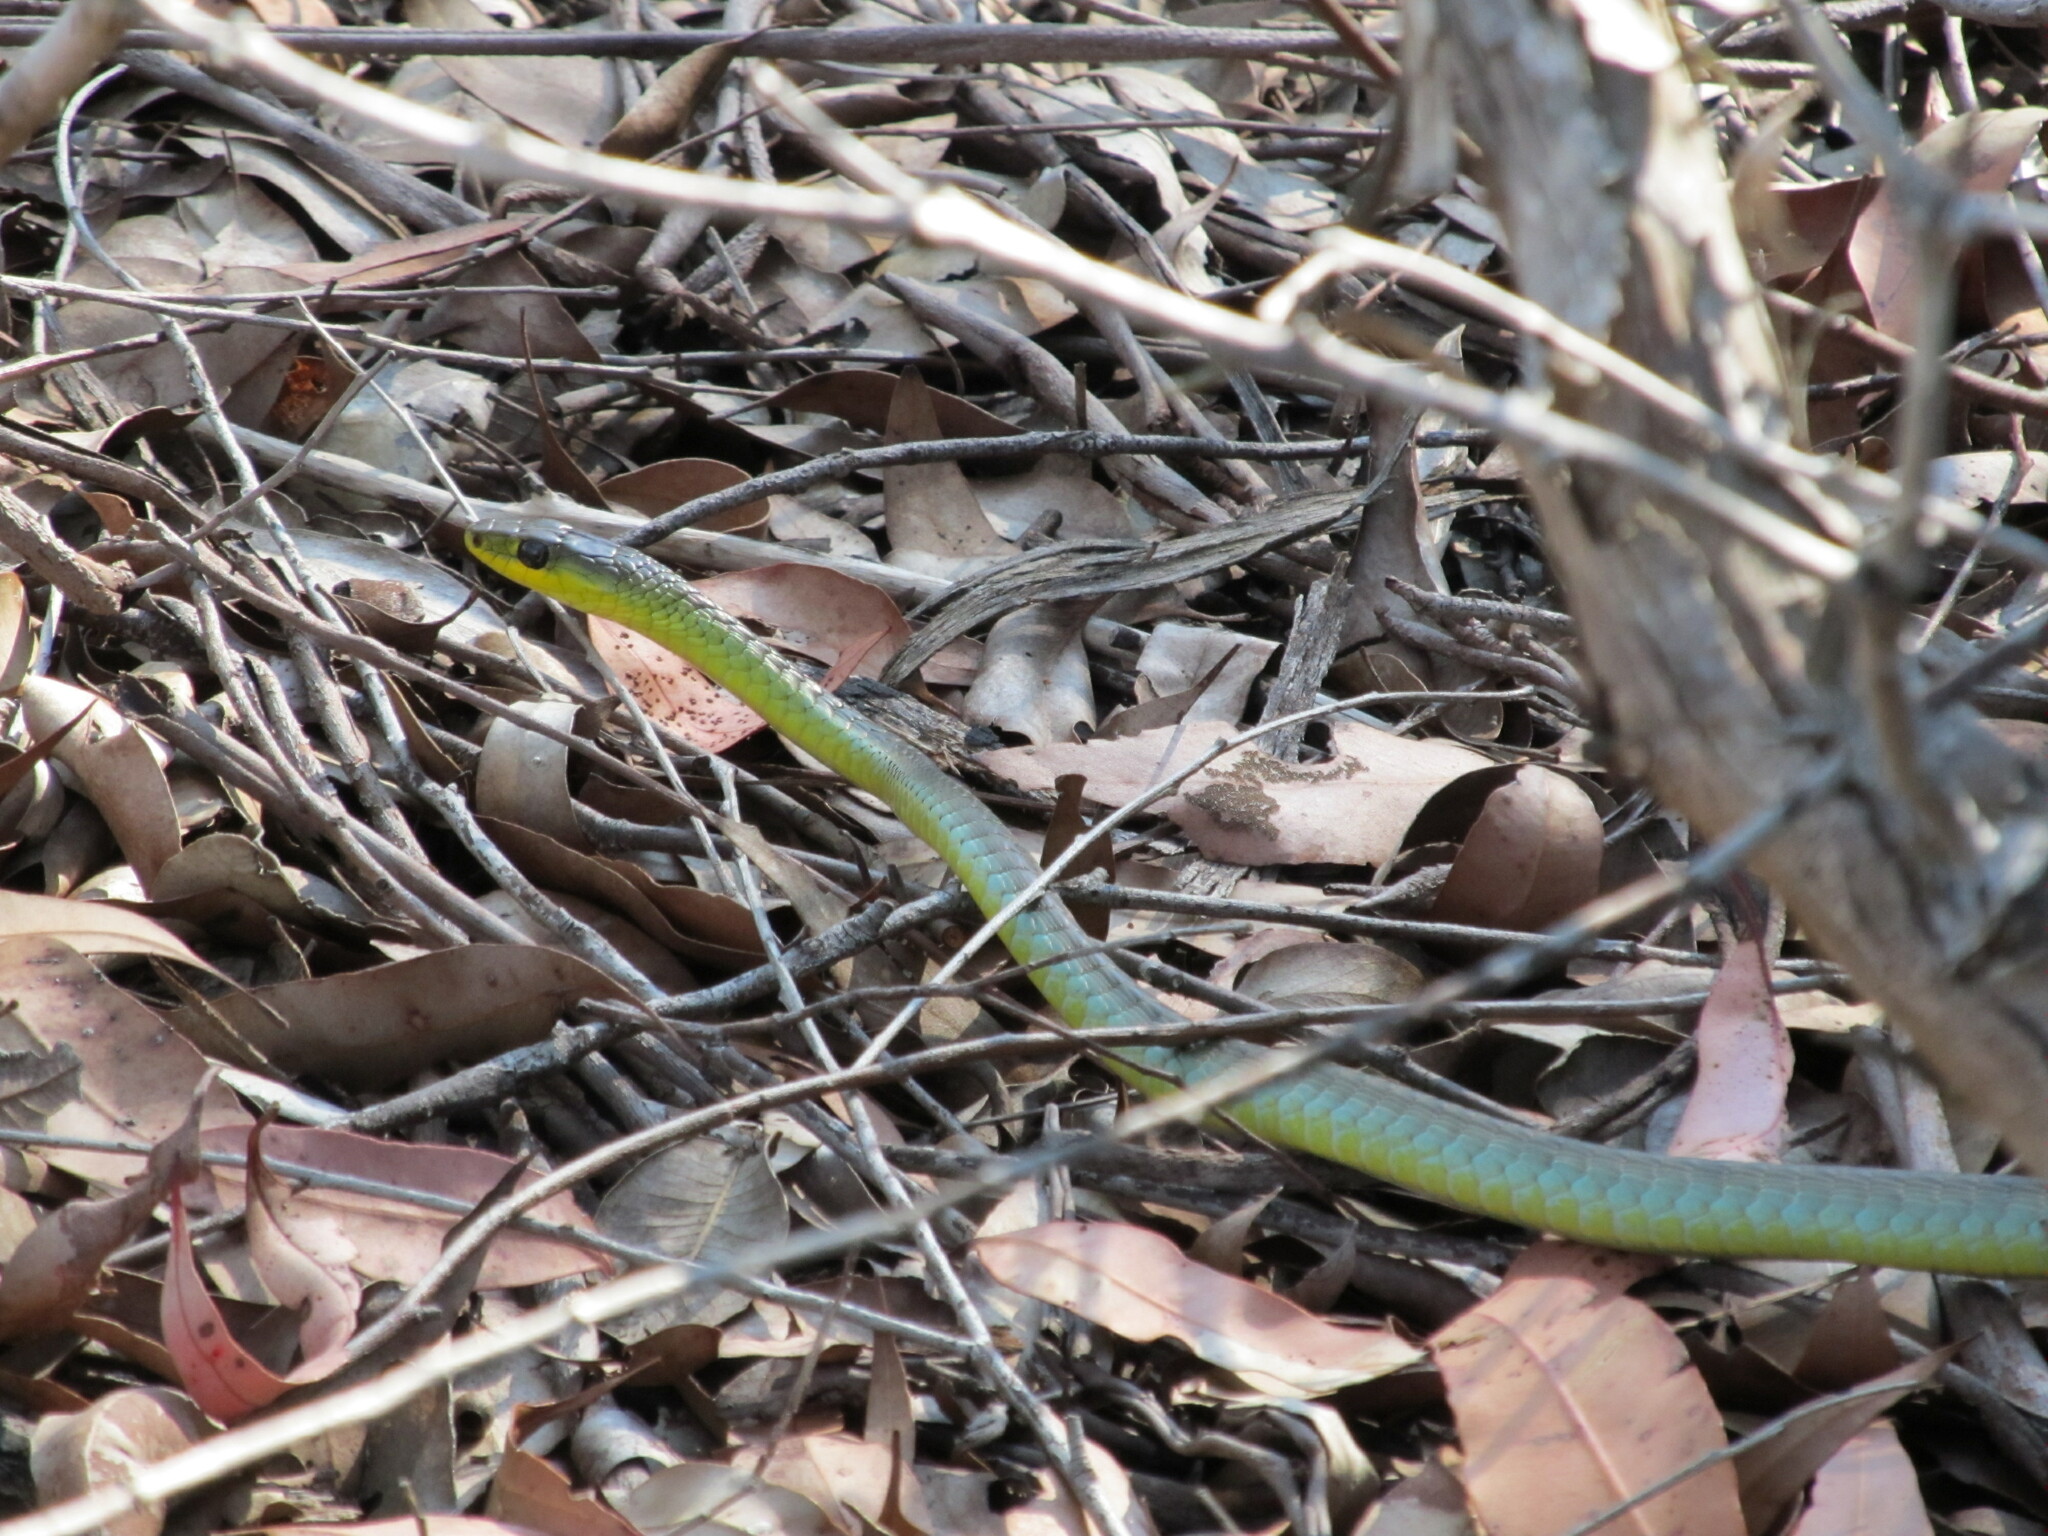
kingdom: Animalia
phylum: Chordata
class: Squamata
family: Colubridae
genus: Dendrelaphis
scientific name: Dendrelaphis punctulatus
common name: Common tree snake
